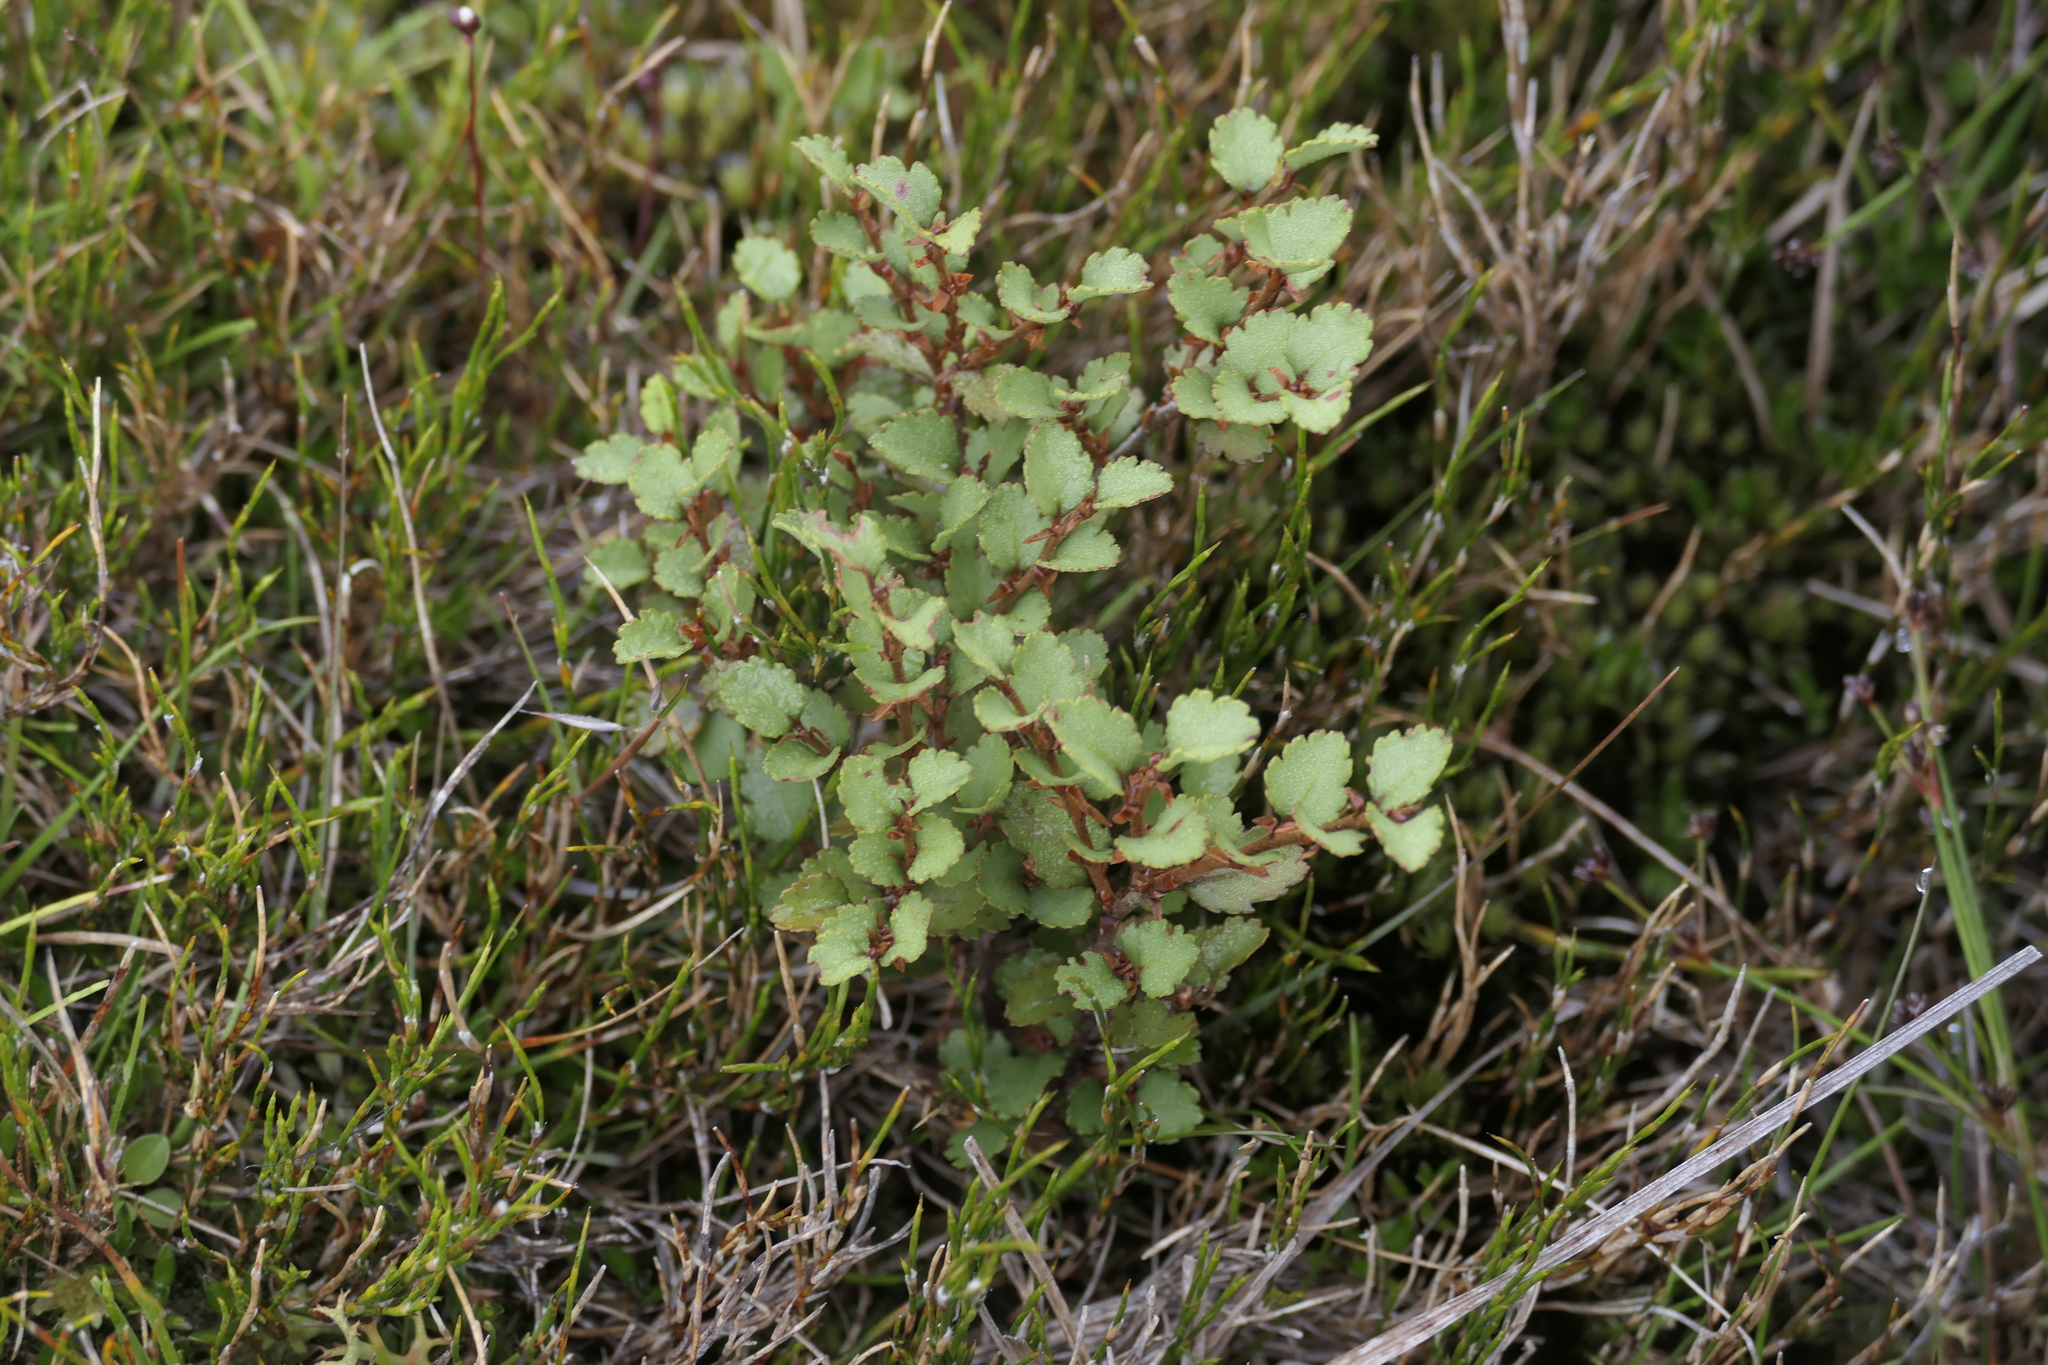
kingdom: Plantae
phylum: Tracheophyta
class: Magnoliopsida
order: Fagales
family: Nothofagaceae
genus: Nothofagus
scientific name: Nothofagus menziesii
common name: Silver beech
